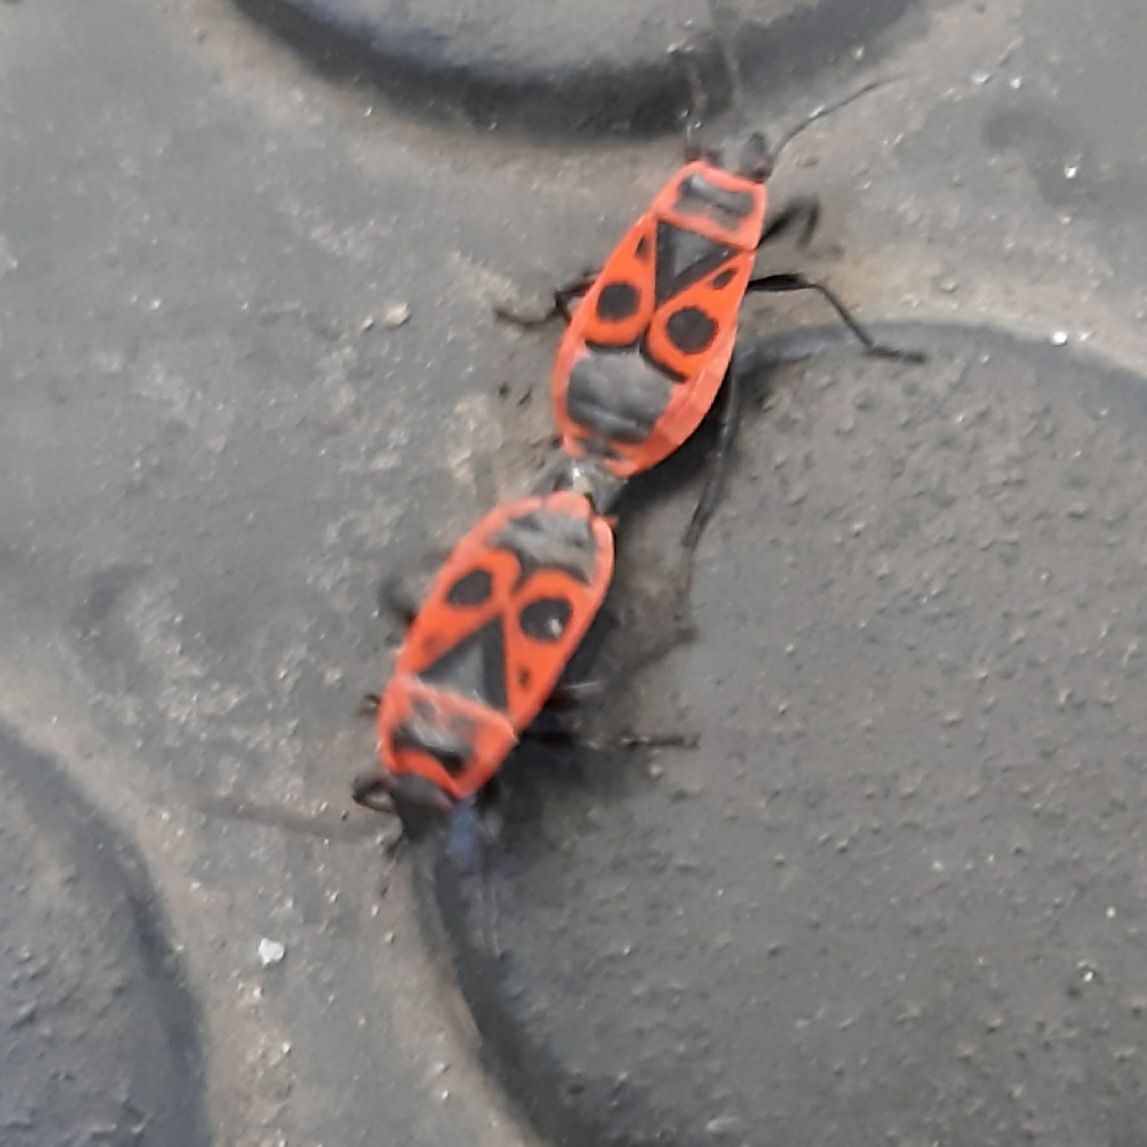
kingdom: Animalia
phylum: Arthropoda
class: Insecta
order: Hemiptera
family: Pyrrhocoridae
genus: Pyrrhocoris
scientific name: Pyrrhocoris apterus
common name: Firebug
